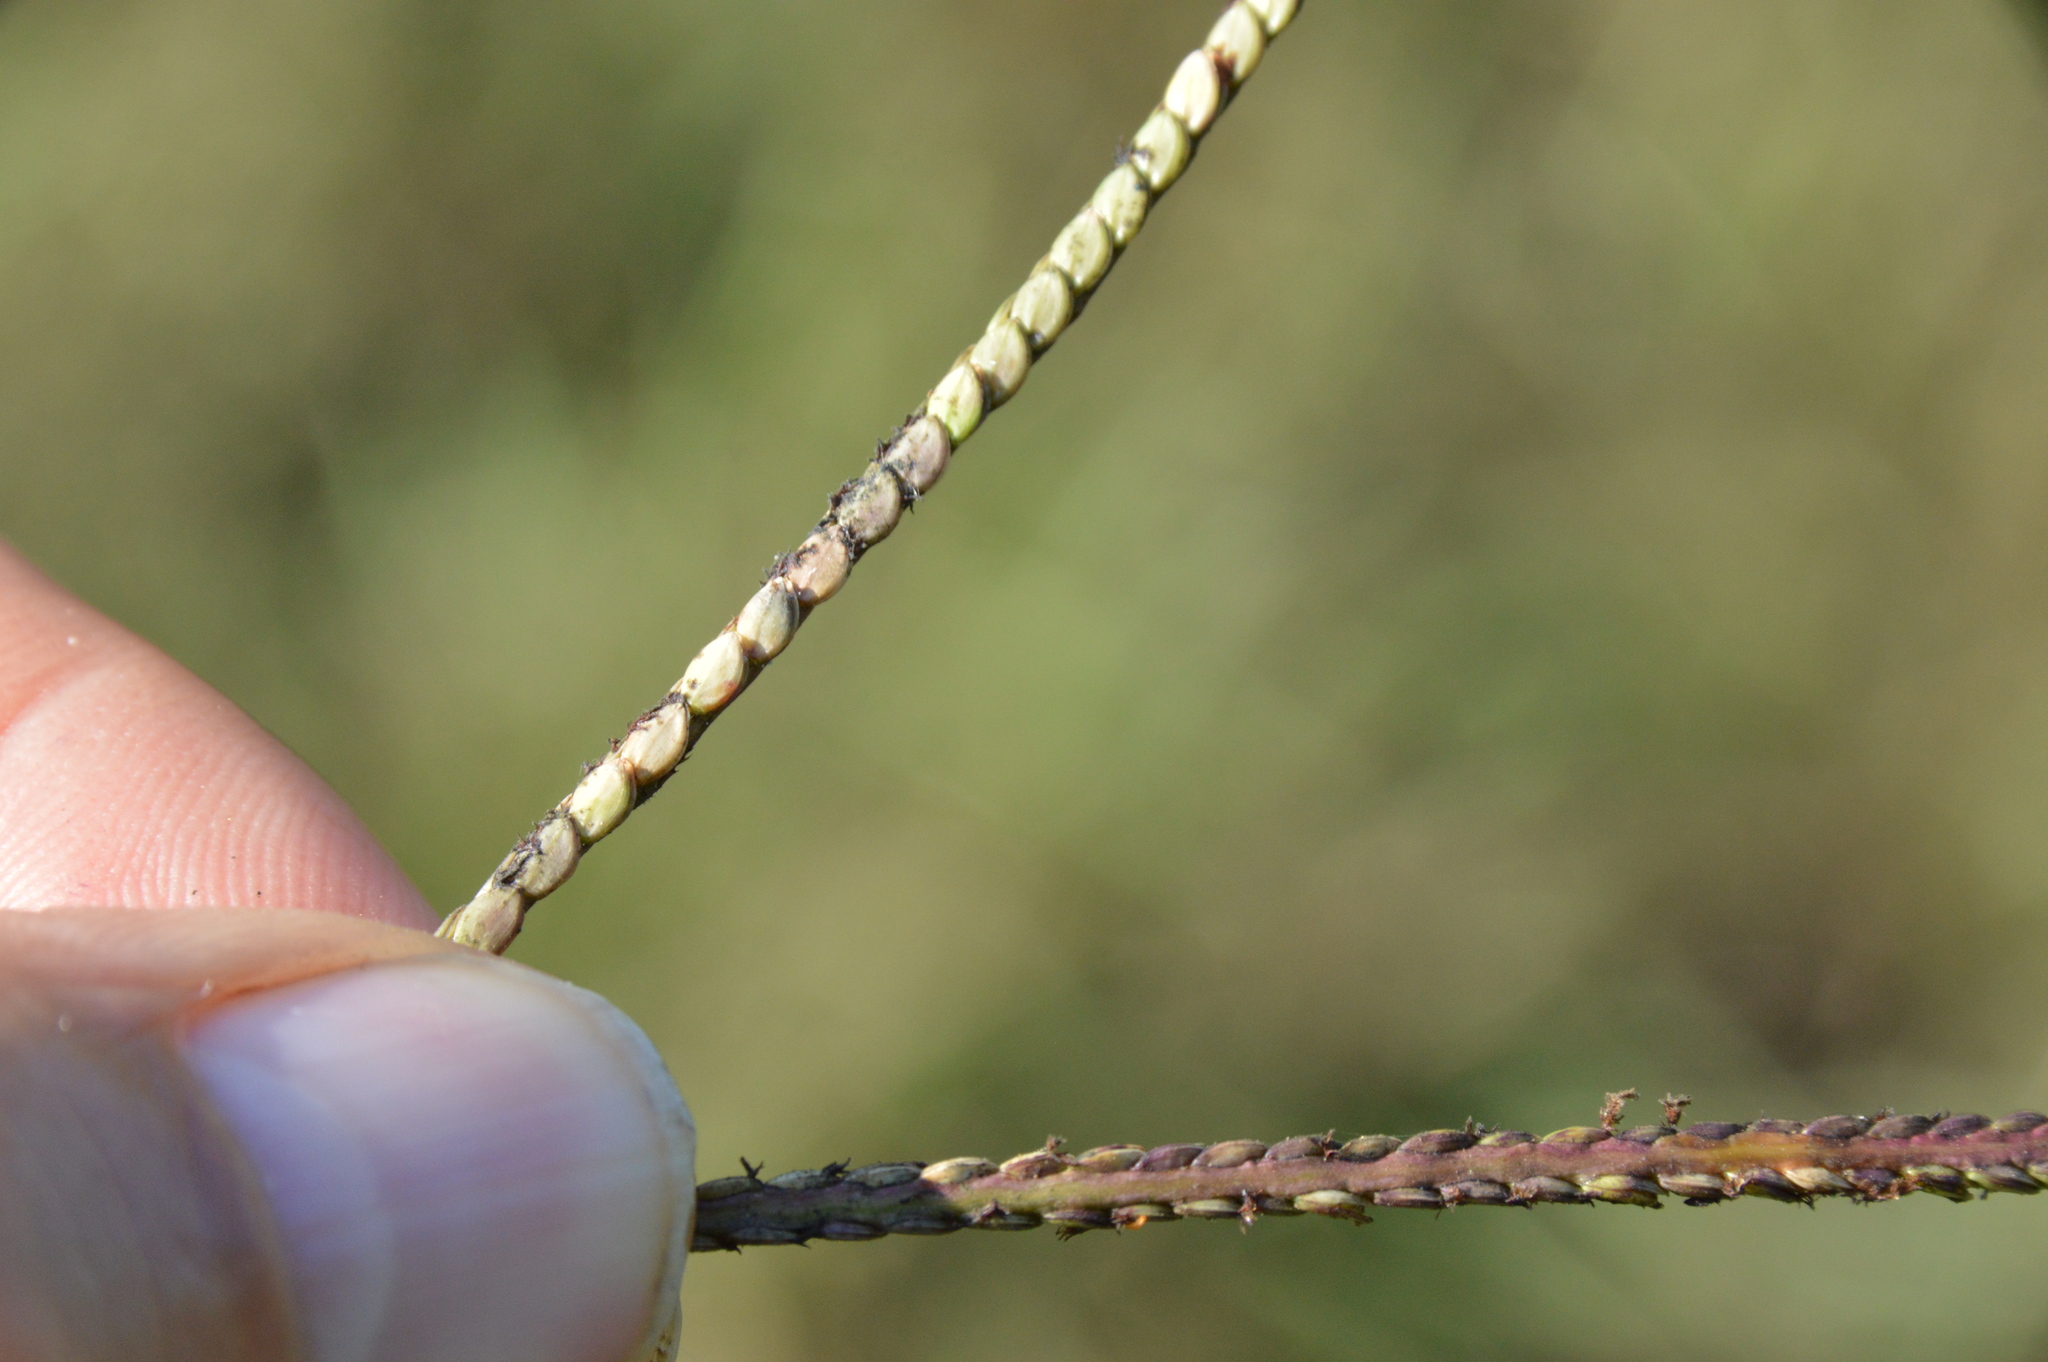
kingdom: Plantae
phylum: Tracheophyta
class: Liliopsida
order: Poales
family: Poaceae
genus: Paspalum
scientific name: Paspalum notatum
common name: Bahiagrass
